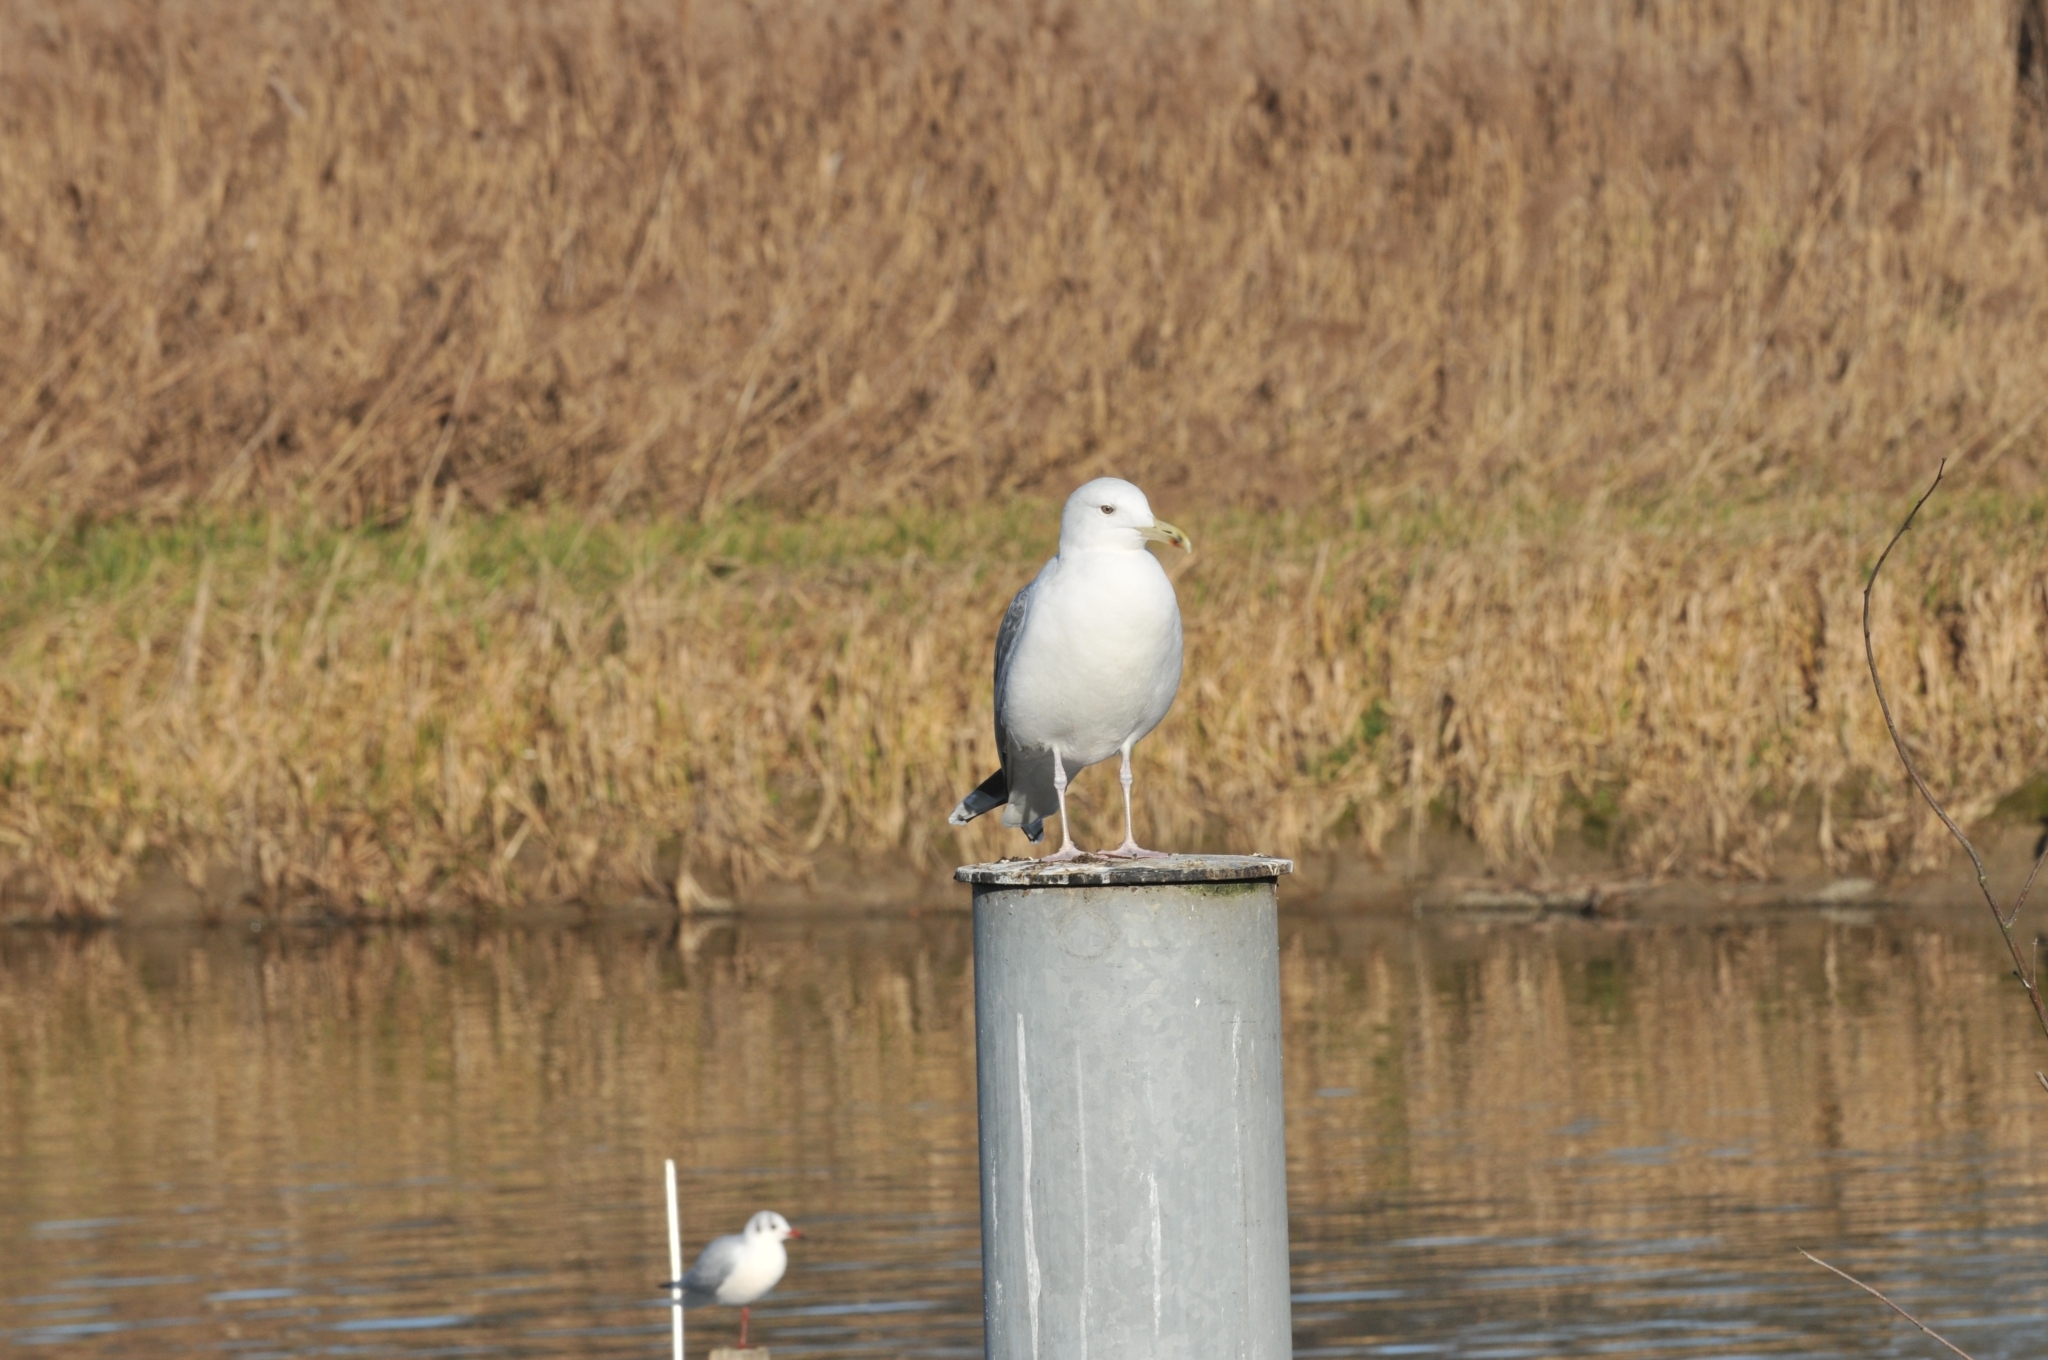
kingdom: Animalia
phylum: Chordata
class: Aves
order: Charadriiformes
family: Laridae
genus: Larus
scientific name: Larus cachinnans
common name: Caspian gull
